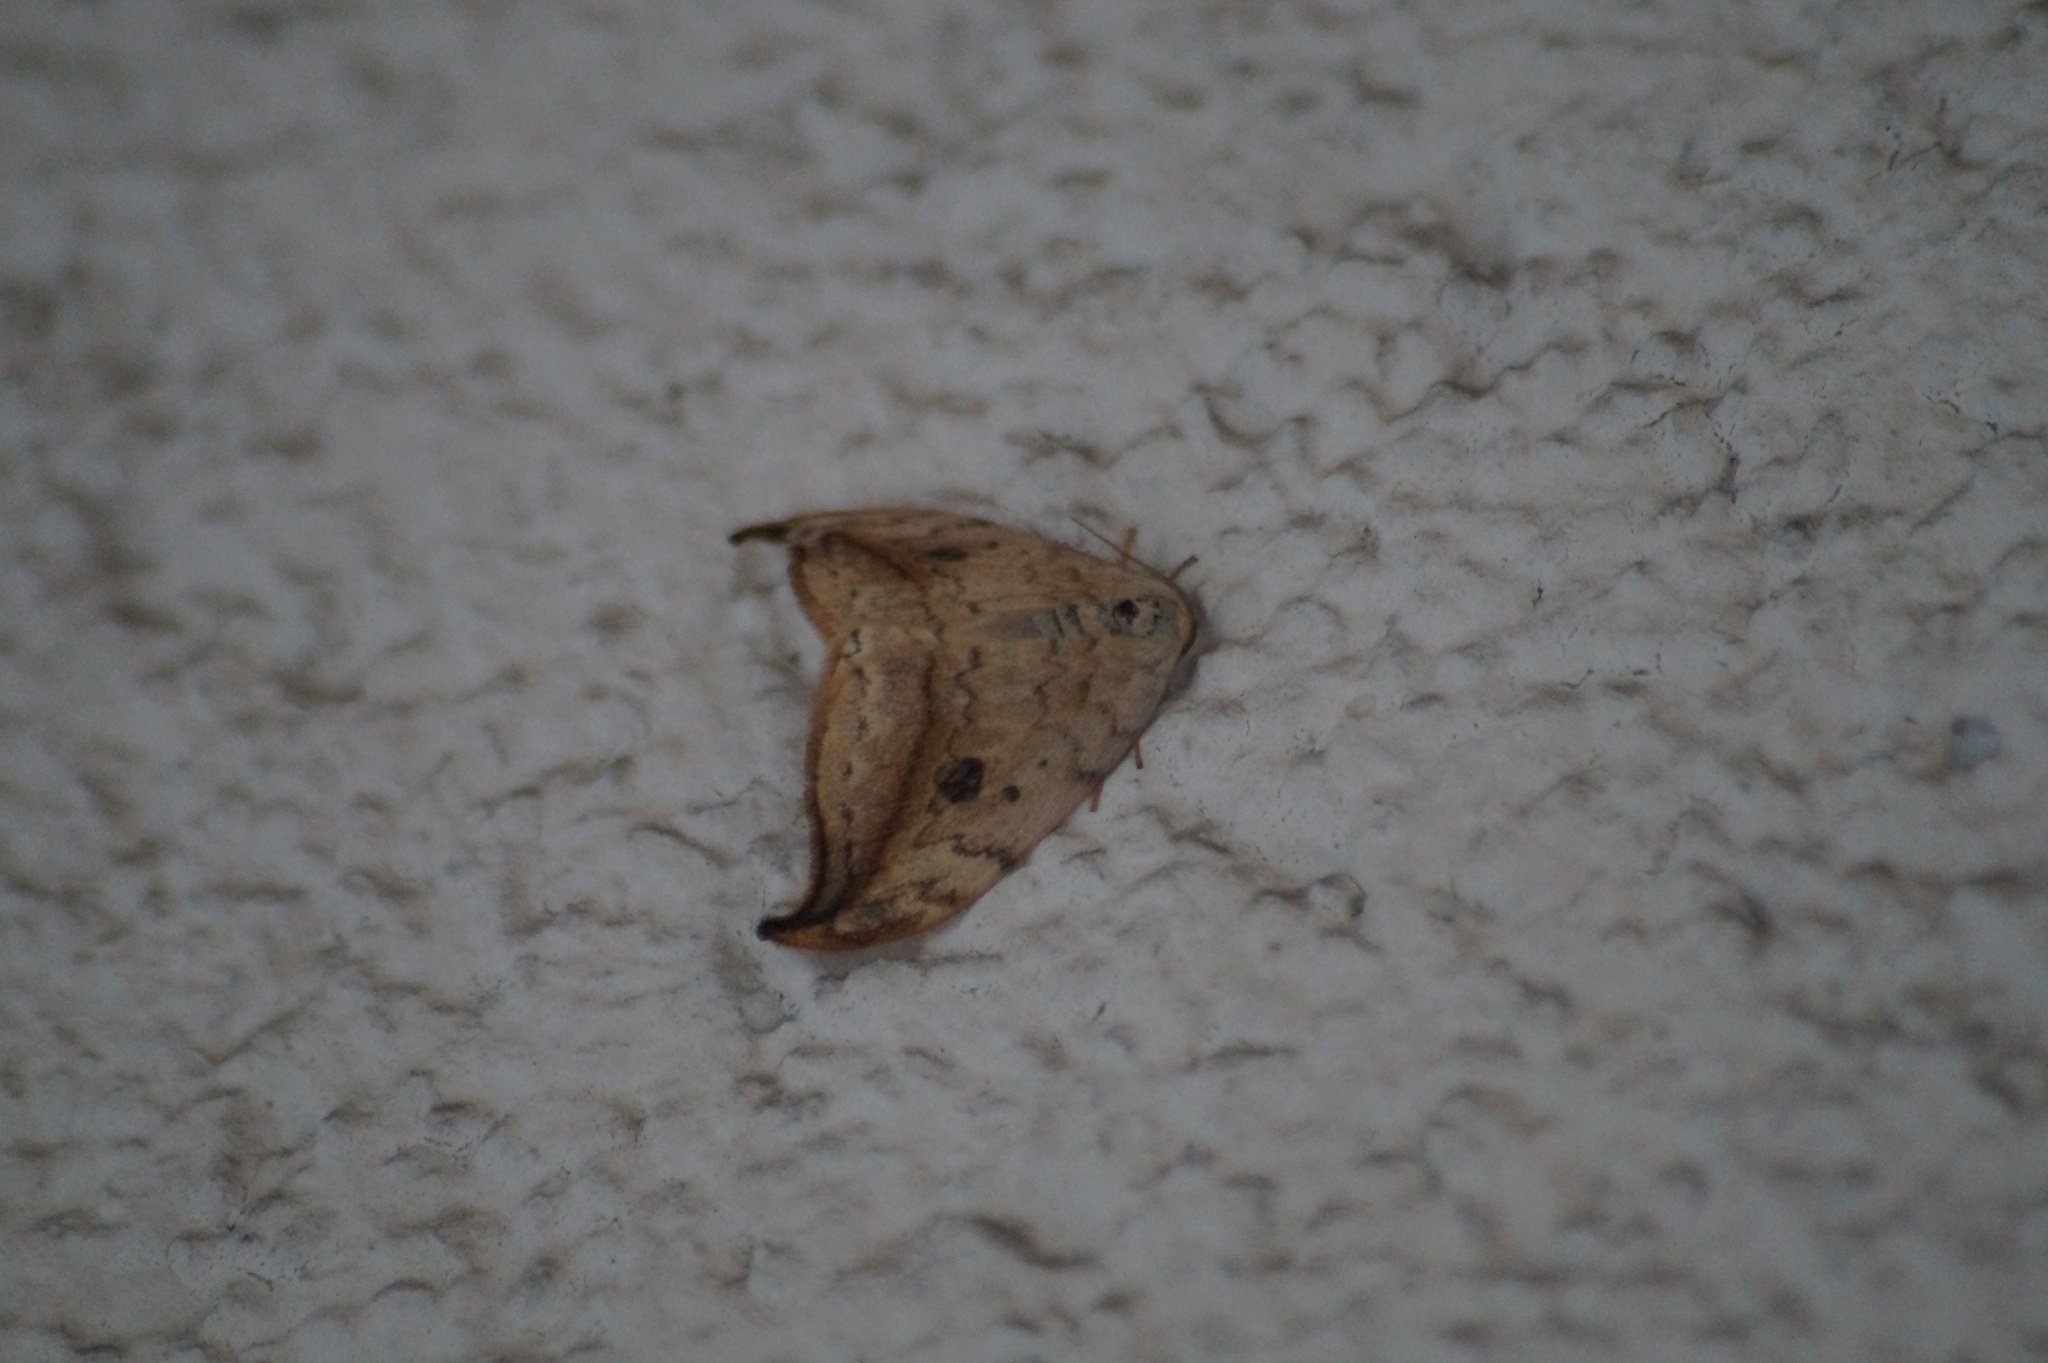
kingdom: Animalia
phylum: Arthropoda
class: Insecta
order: Lepidoptera
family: Drepanidae
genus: Drepana
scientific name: Drepana falcataria
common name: Pebble hook-tip
